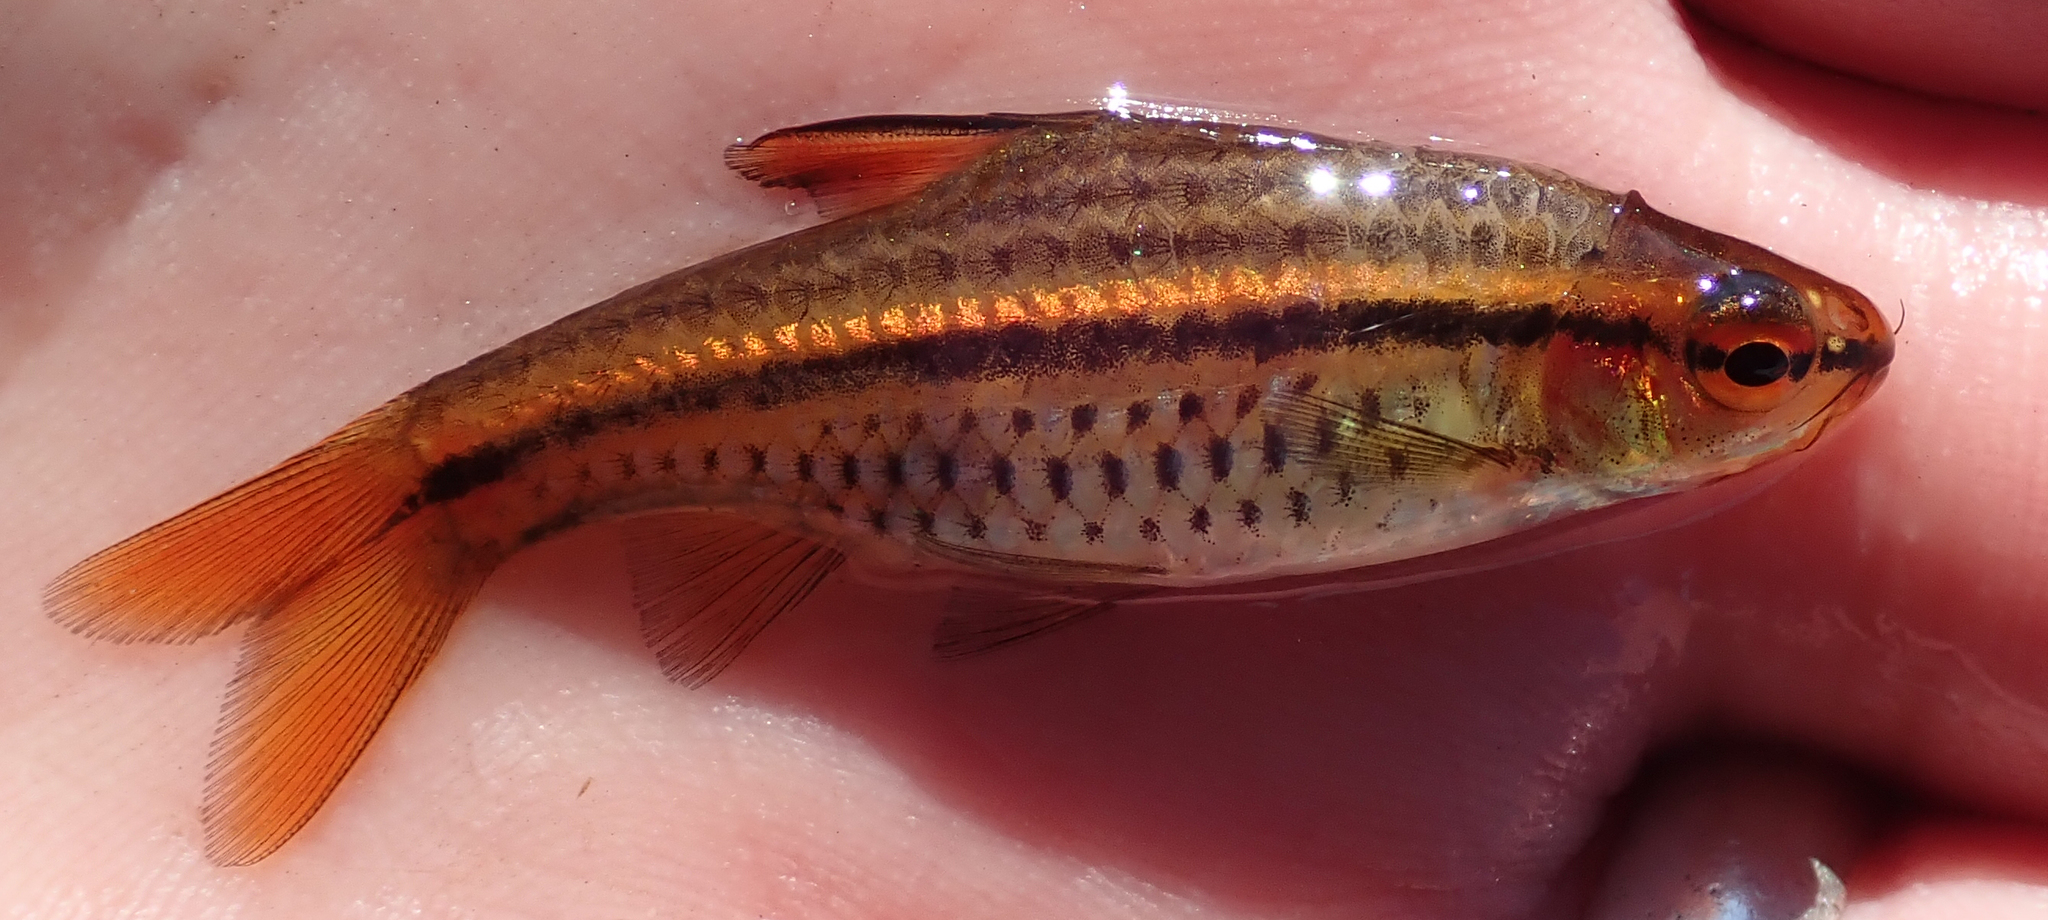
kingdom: Animalia
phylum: Chordata
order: Cypriniformes
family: Cyprinidae
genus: Enteromius
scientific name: Enteromius multilineatus
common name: Copperstripe barb
